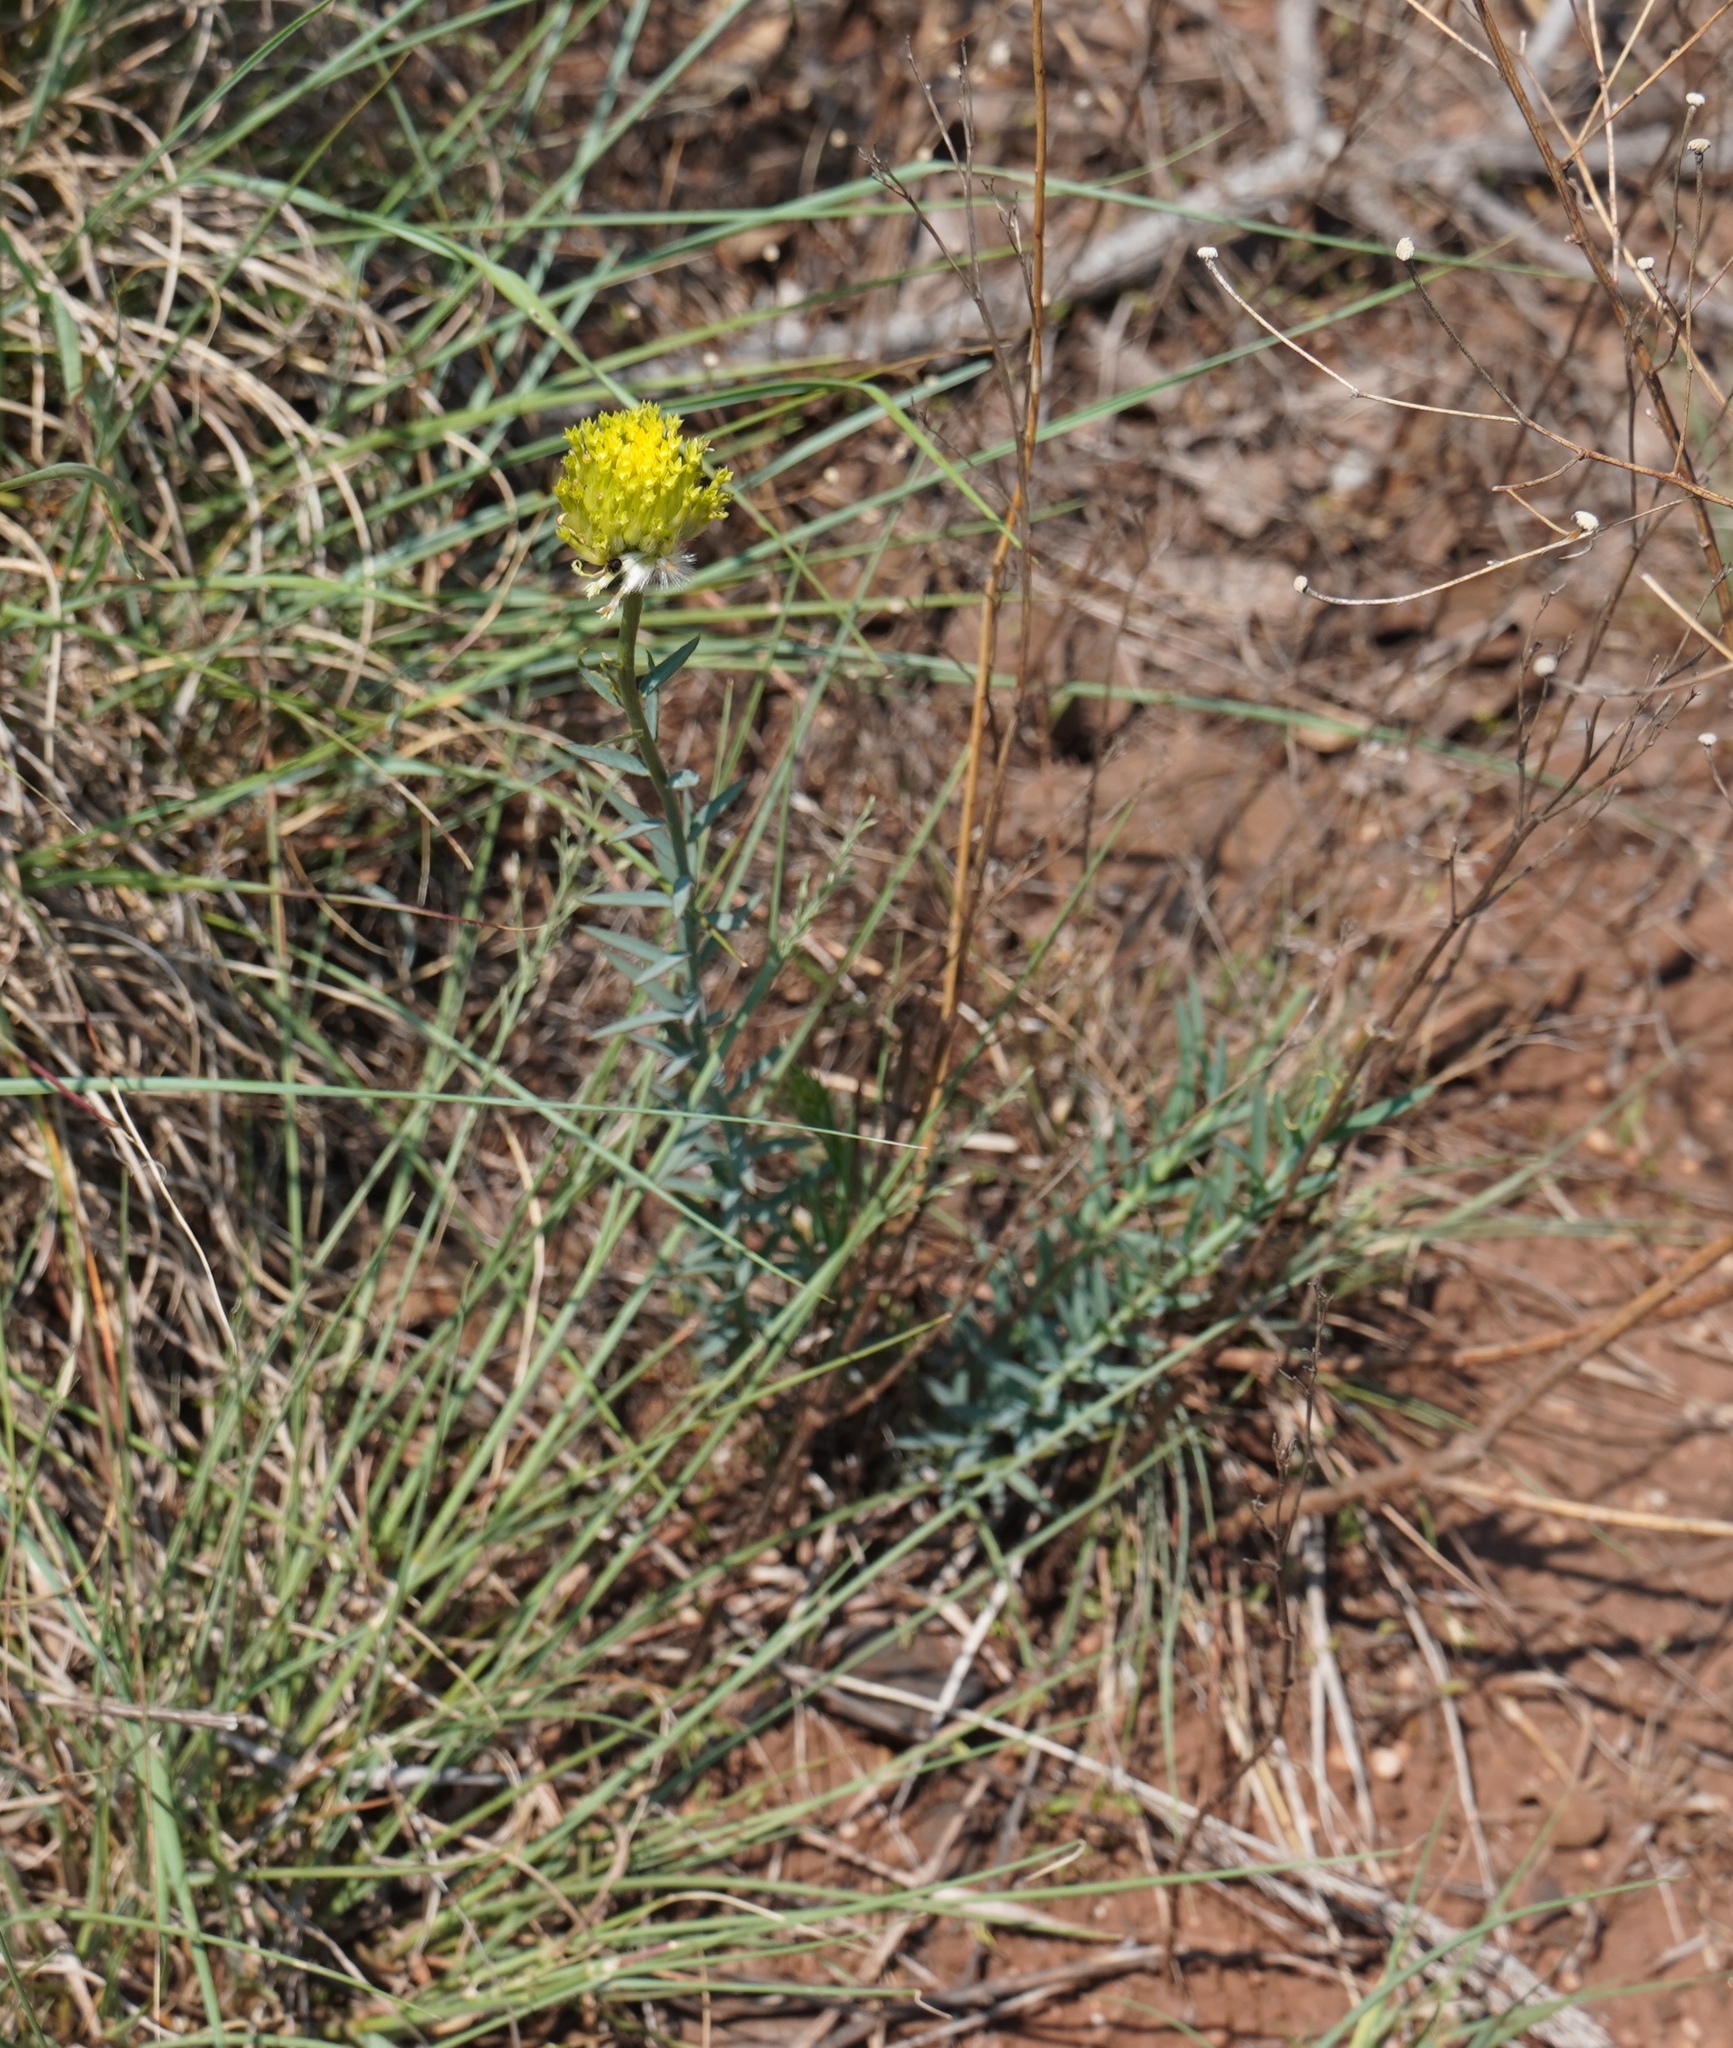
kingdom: Plantae
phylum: Tracheophyta
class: Magnoliopsida
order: Malvales
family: Thymelaeaceae
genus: Gnidia
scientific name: Gnidia sericocephala
